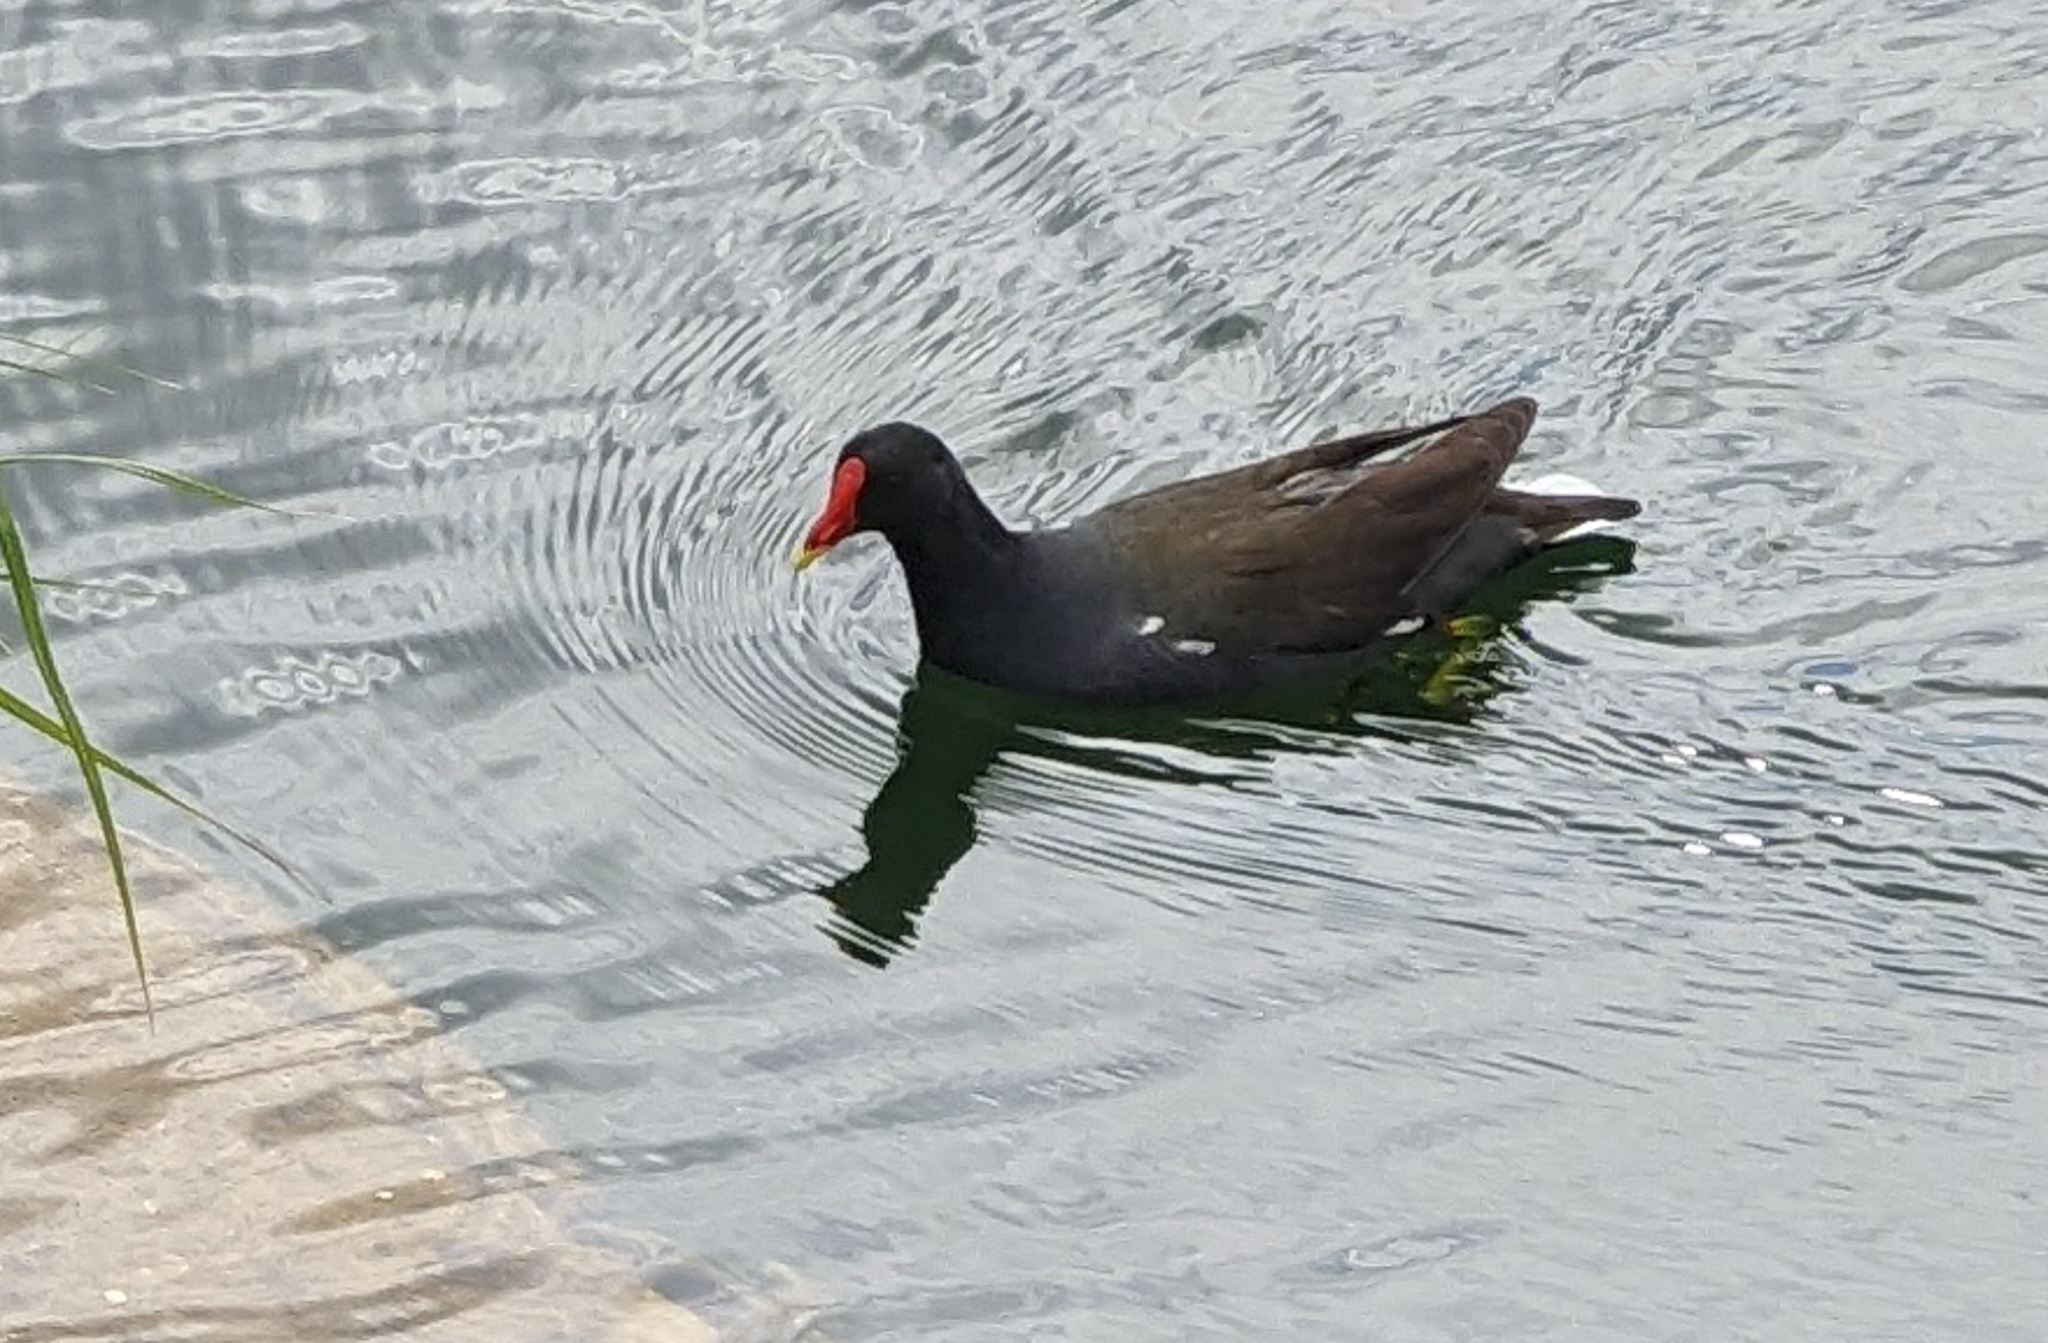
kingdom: Animalia
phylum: Chordata
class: Aves
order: Gruiformes
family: Rallidae
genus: Gallinula
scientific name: Gallinula chloropus
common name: Common moorhen
